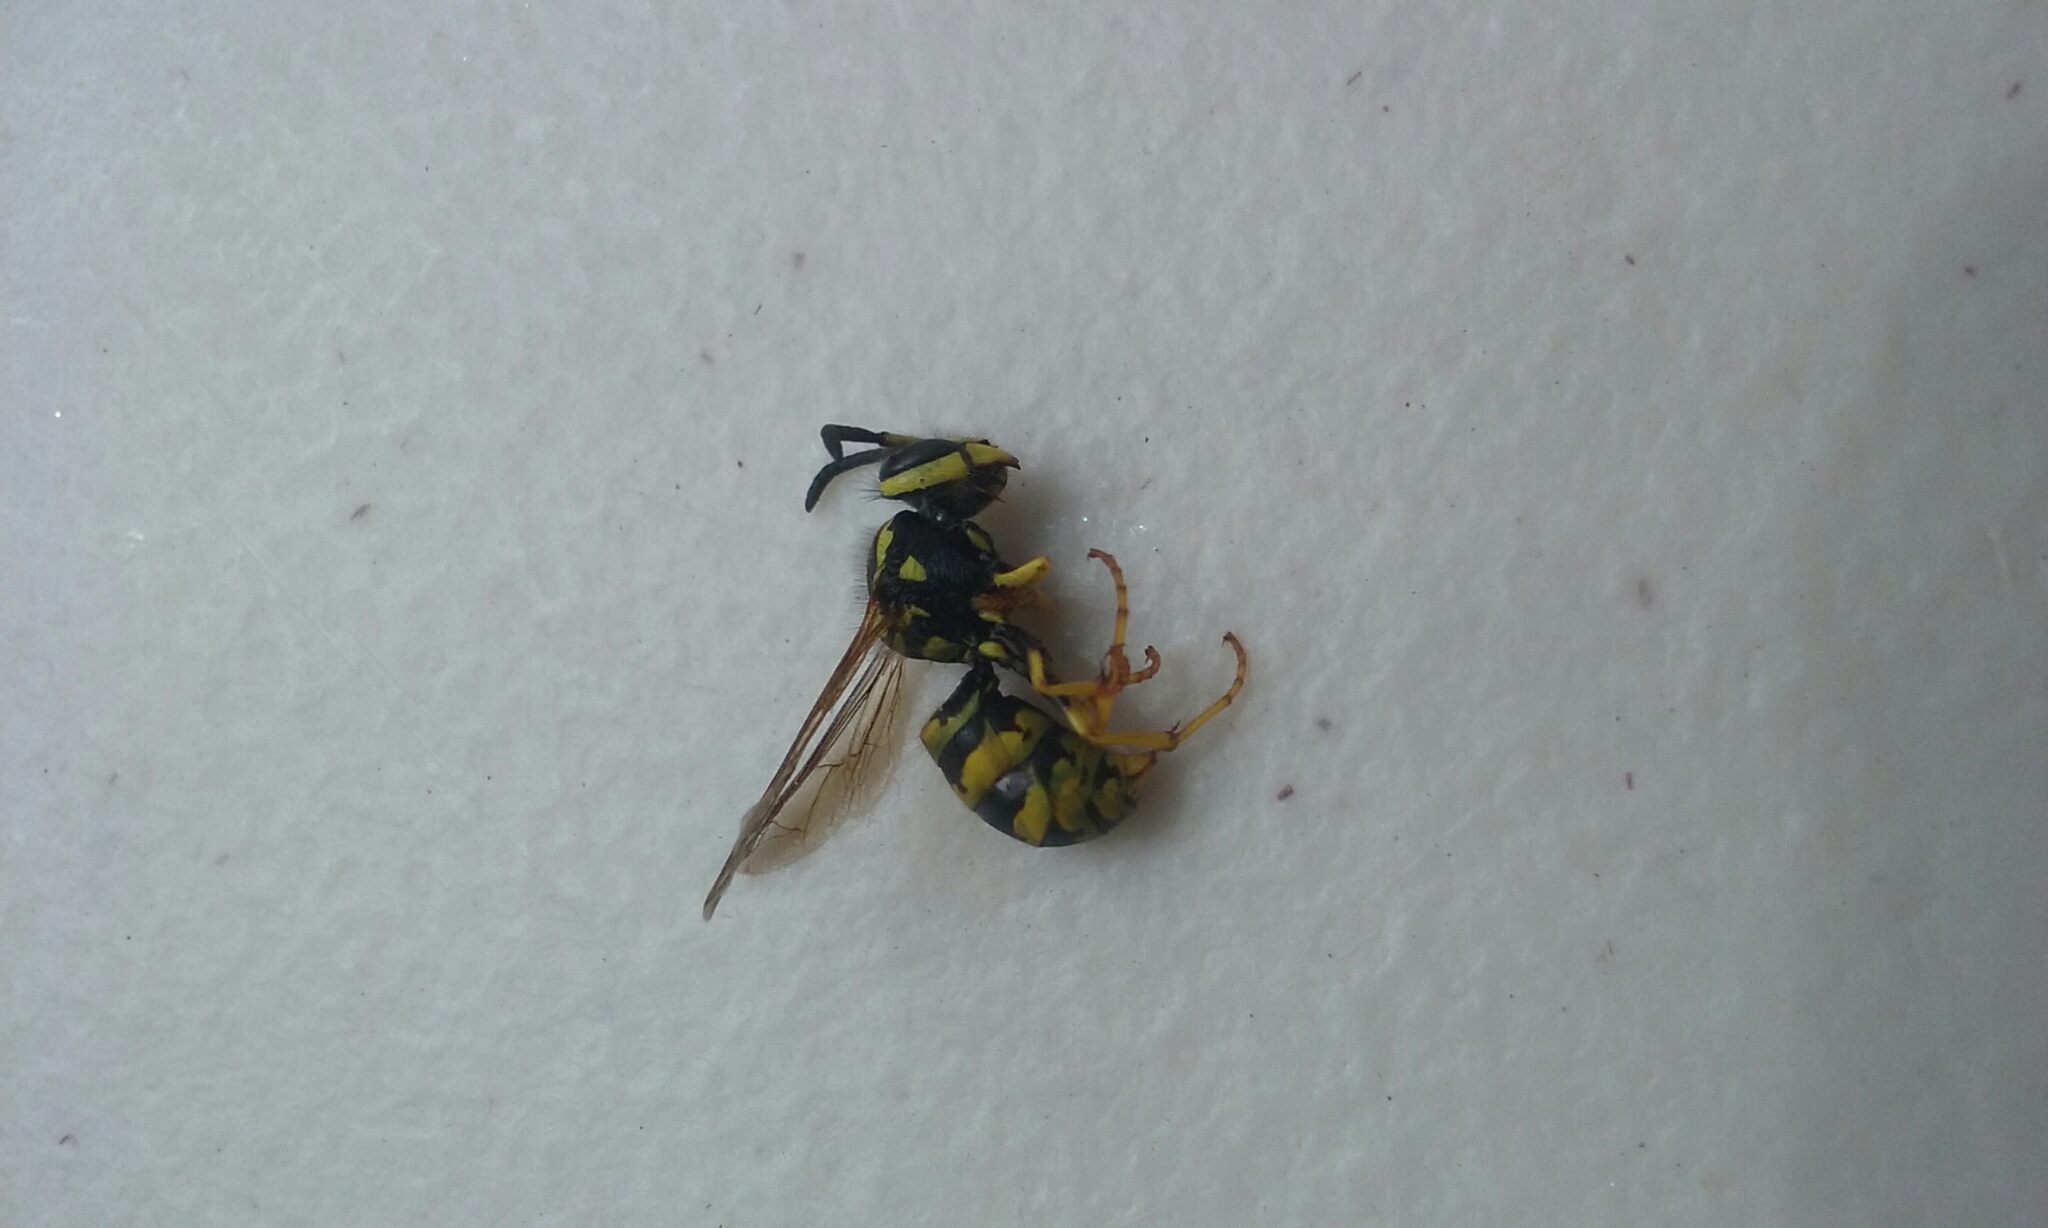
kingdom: Animalia
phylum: Arthropoda
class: Insecta
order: Hymenoptera
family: Vespidae
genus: Vespula
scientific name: Vespula
